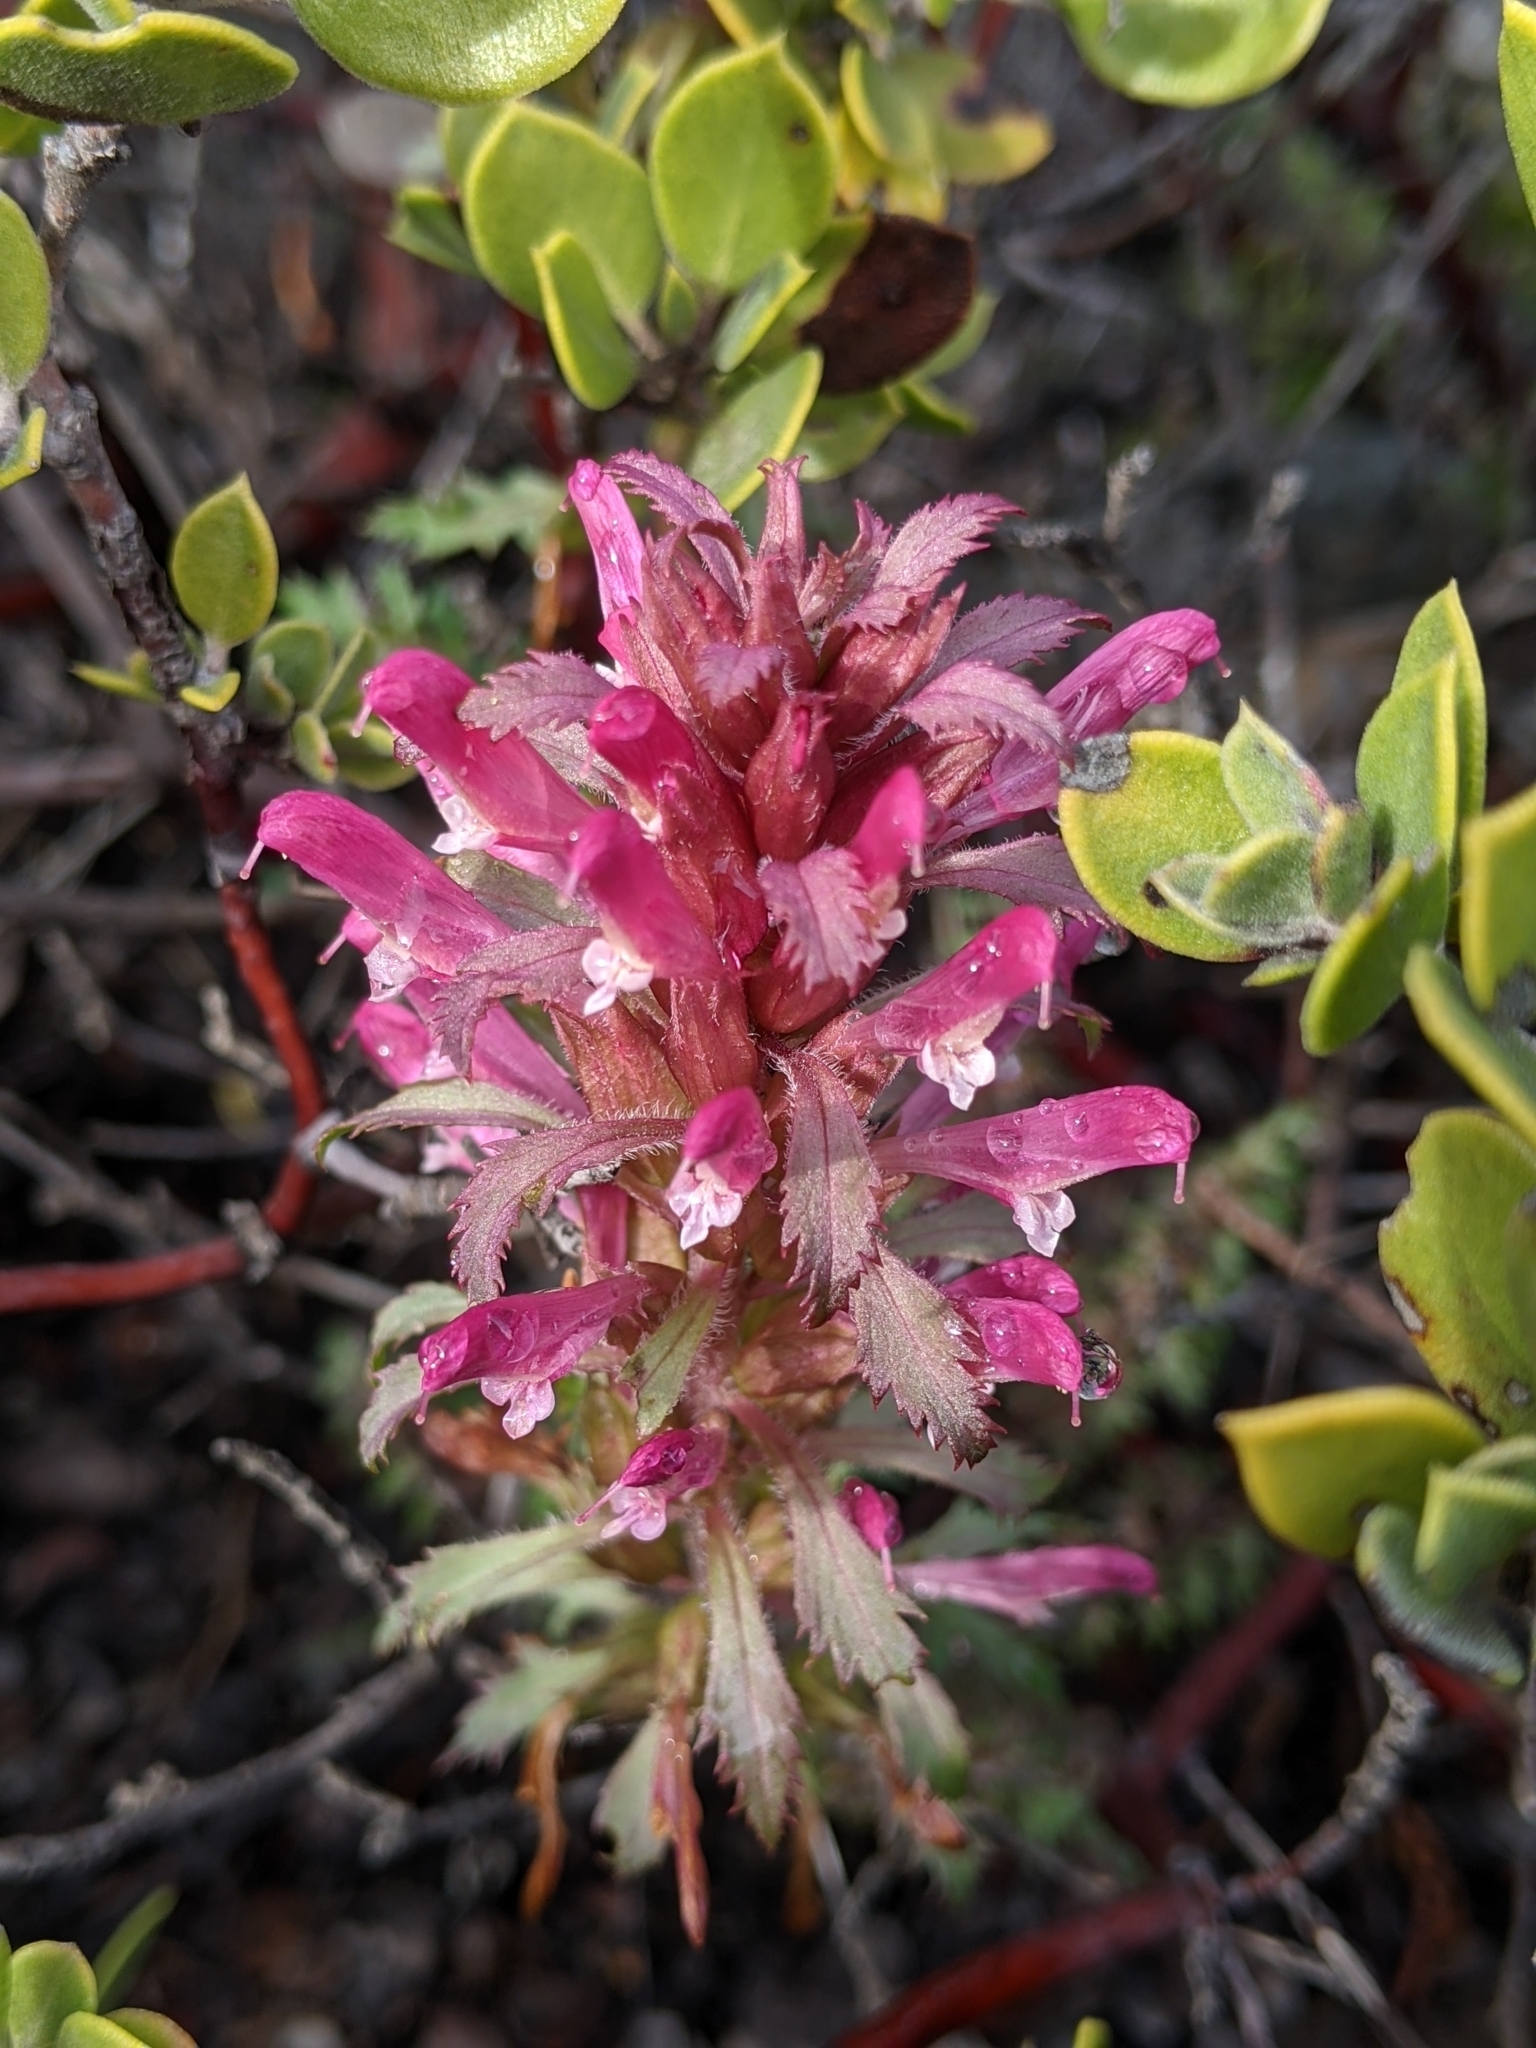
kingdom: Plantae
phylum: Tracheophyta
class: Magnoliopsida
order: Lamiales
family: Orobanchaceae
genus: Pedicularis
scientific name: Pedicularis densiflora
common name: Indian warrior
